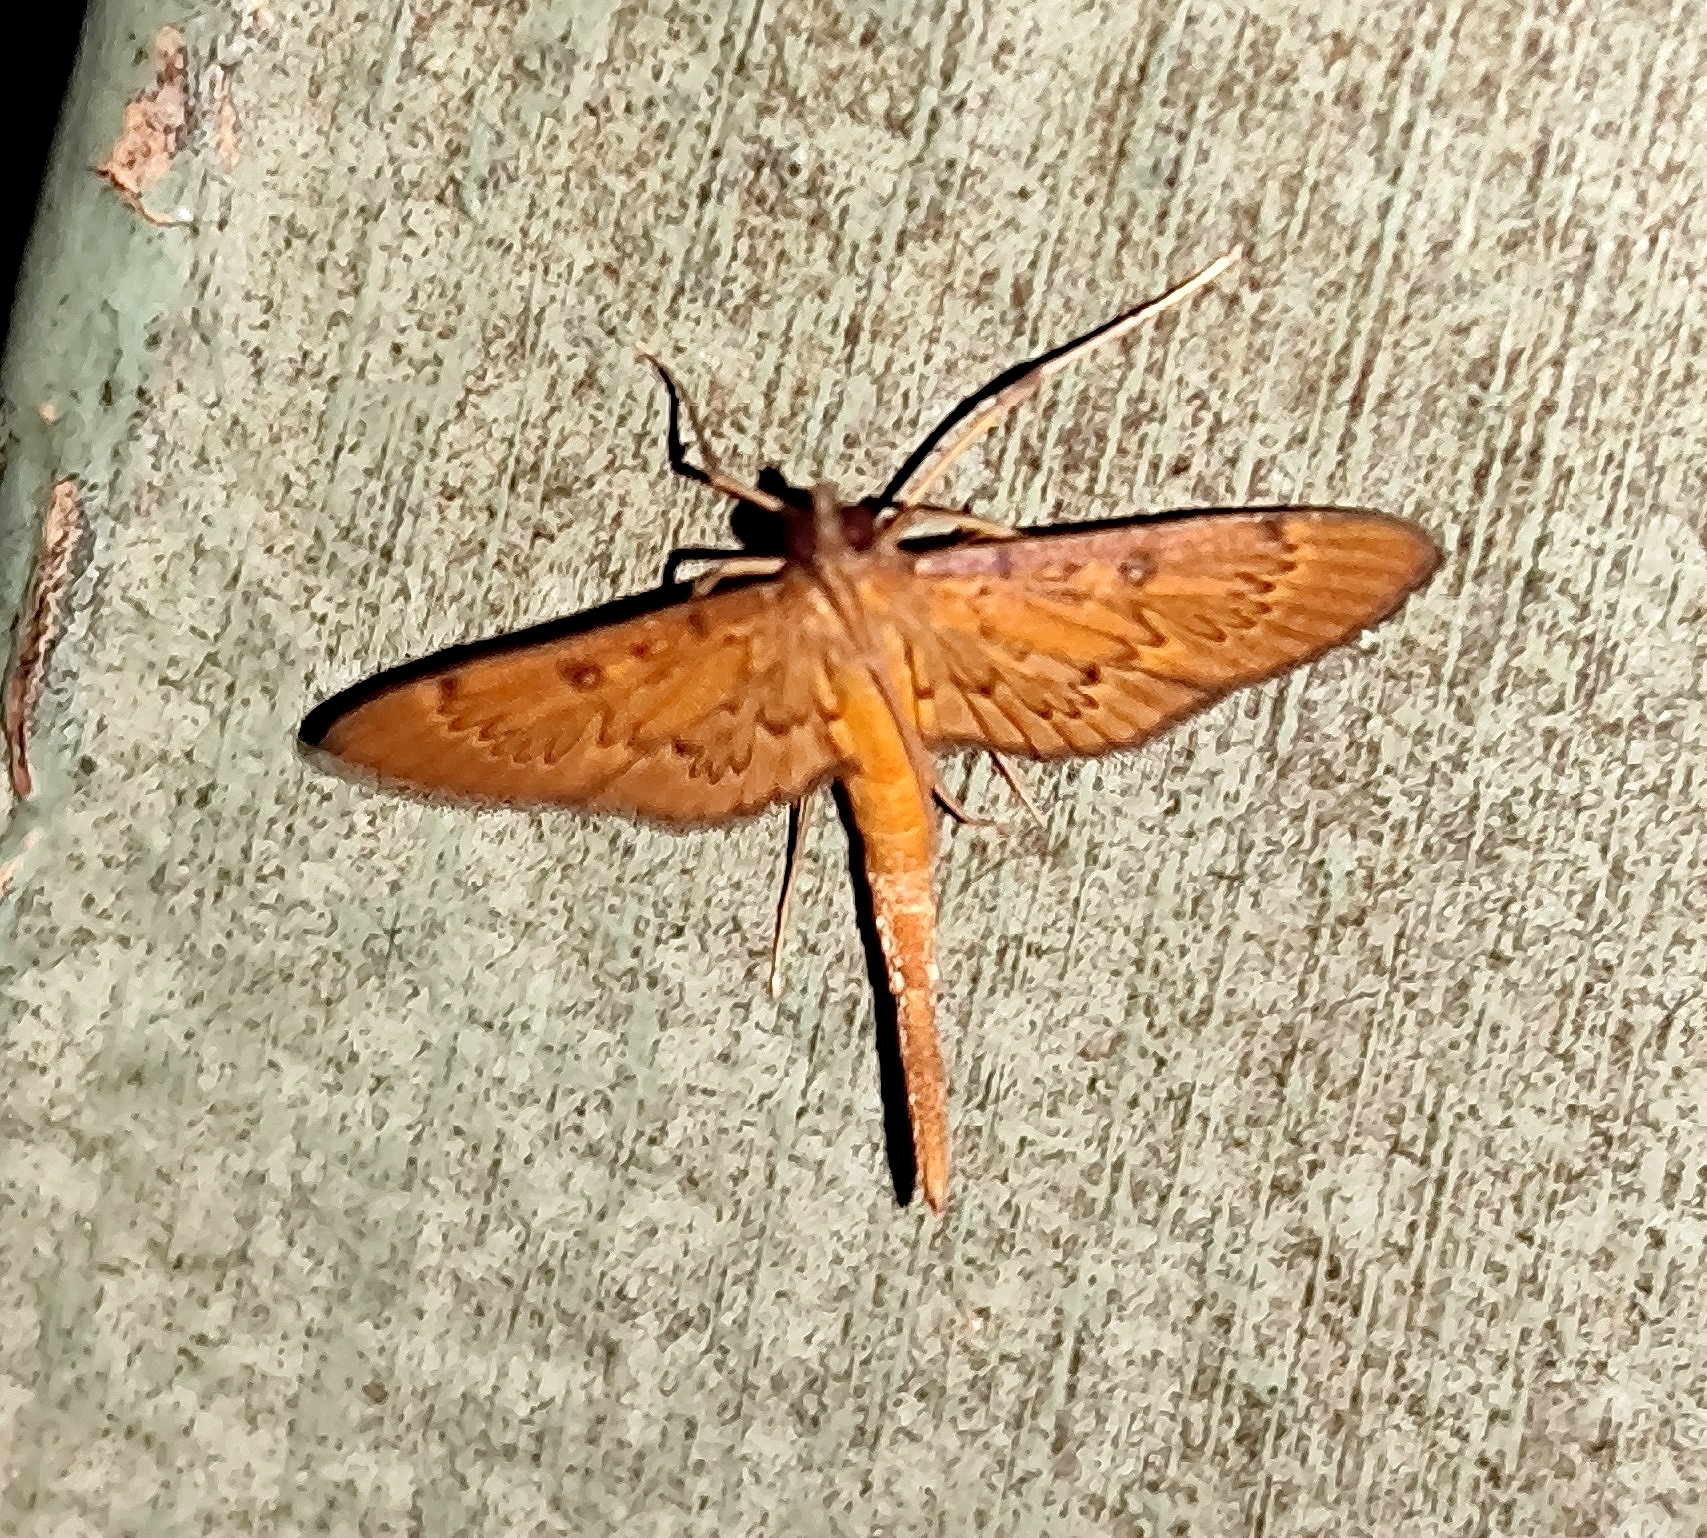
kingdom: Animalia
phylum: Arthropoda
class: Insecta
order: Lepidoptera
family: Crambidae
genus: Hymenoptychis
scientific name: Hymenoptychis sordida
